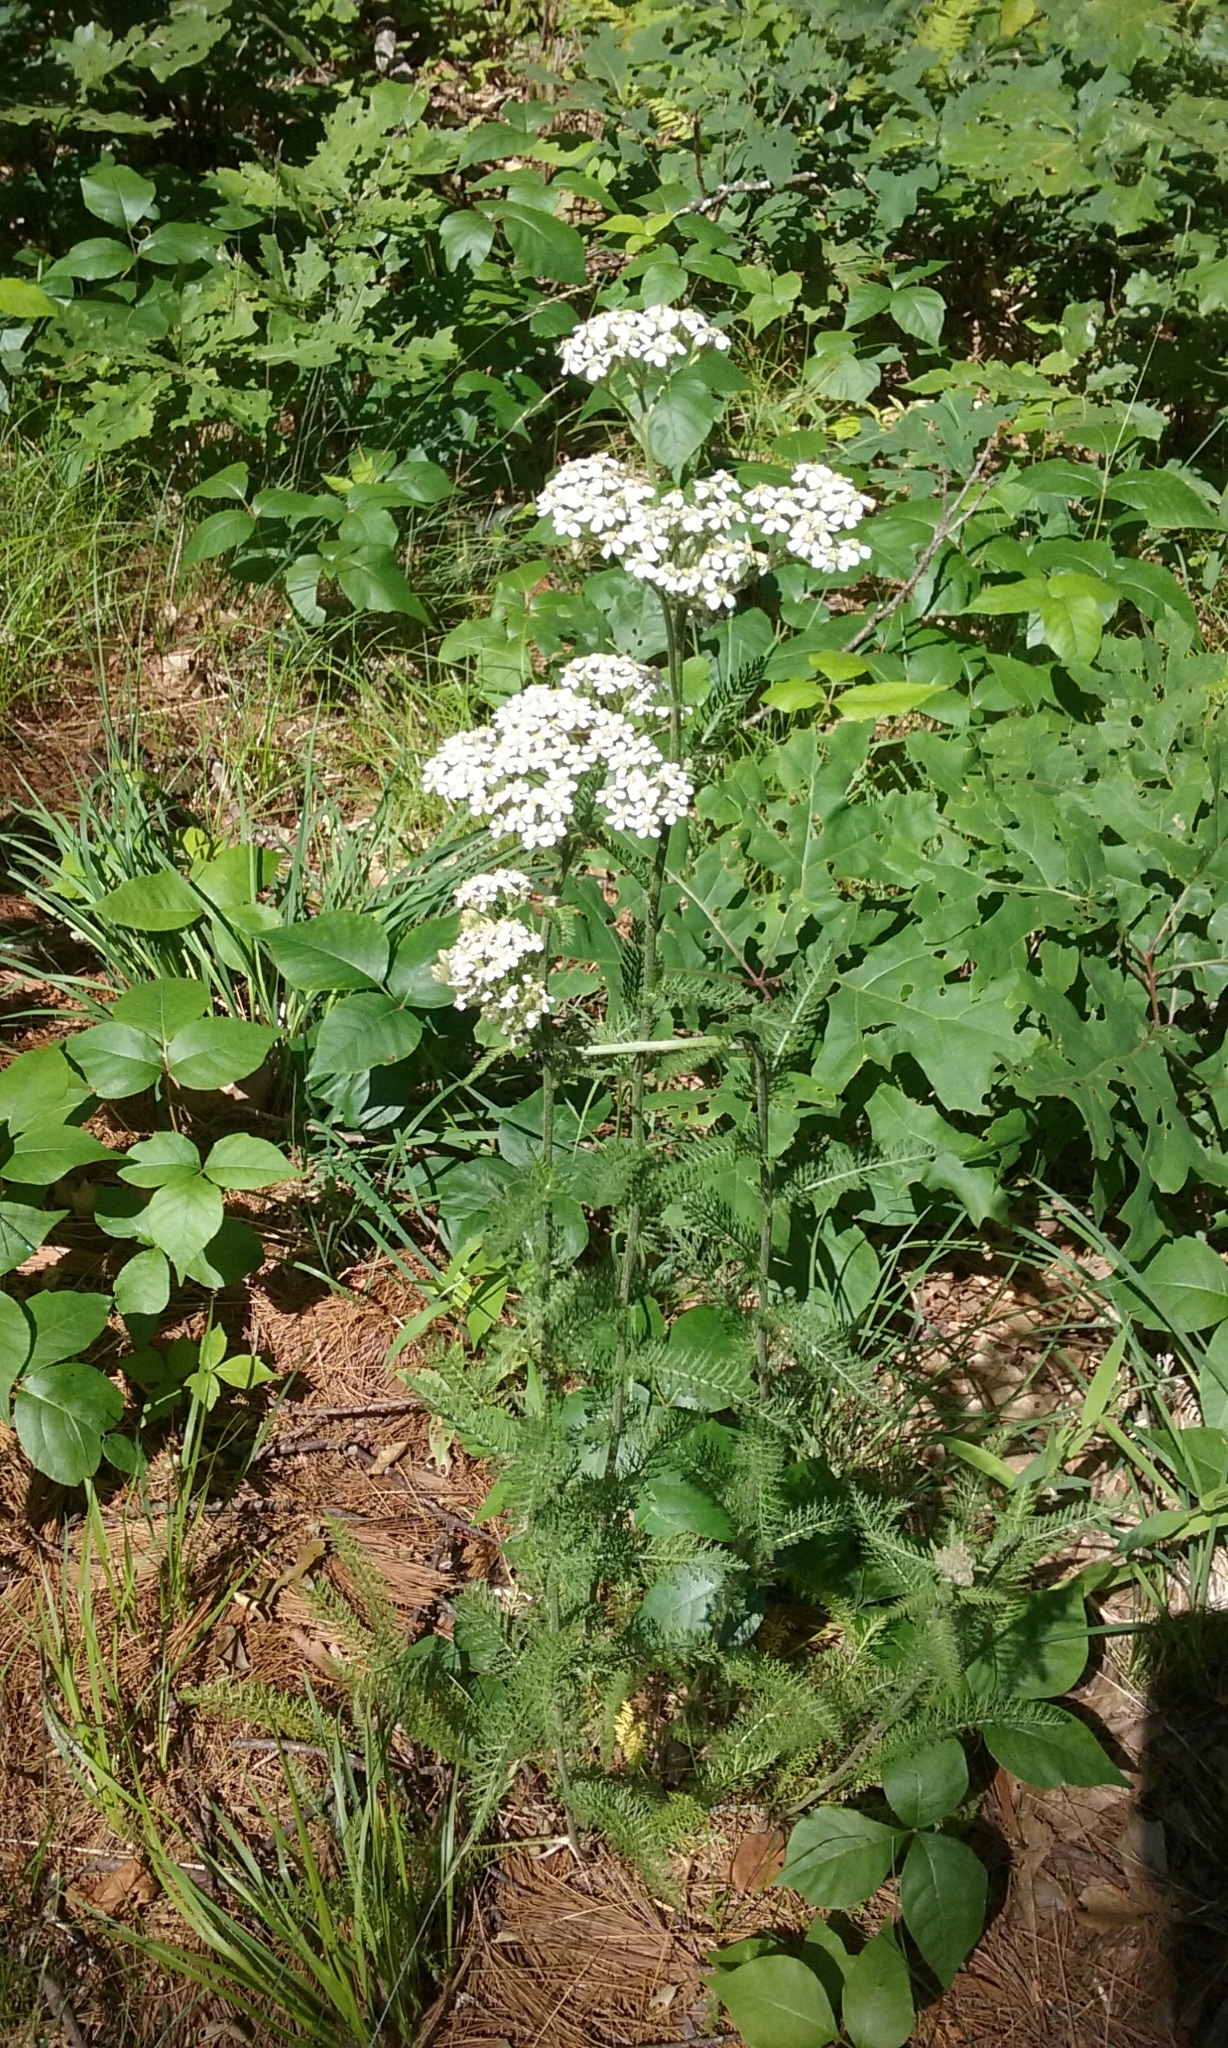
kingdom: Plantae
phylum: Tracheophyta
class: Magnoliopsida
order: Asterales
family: Asteraceae
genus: Achillea
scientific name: Achillea millefolium
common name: Yarrow
